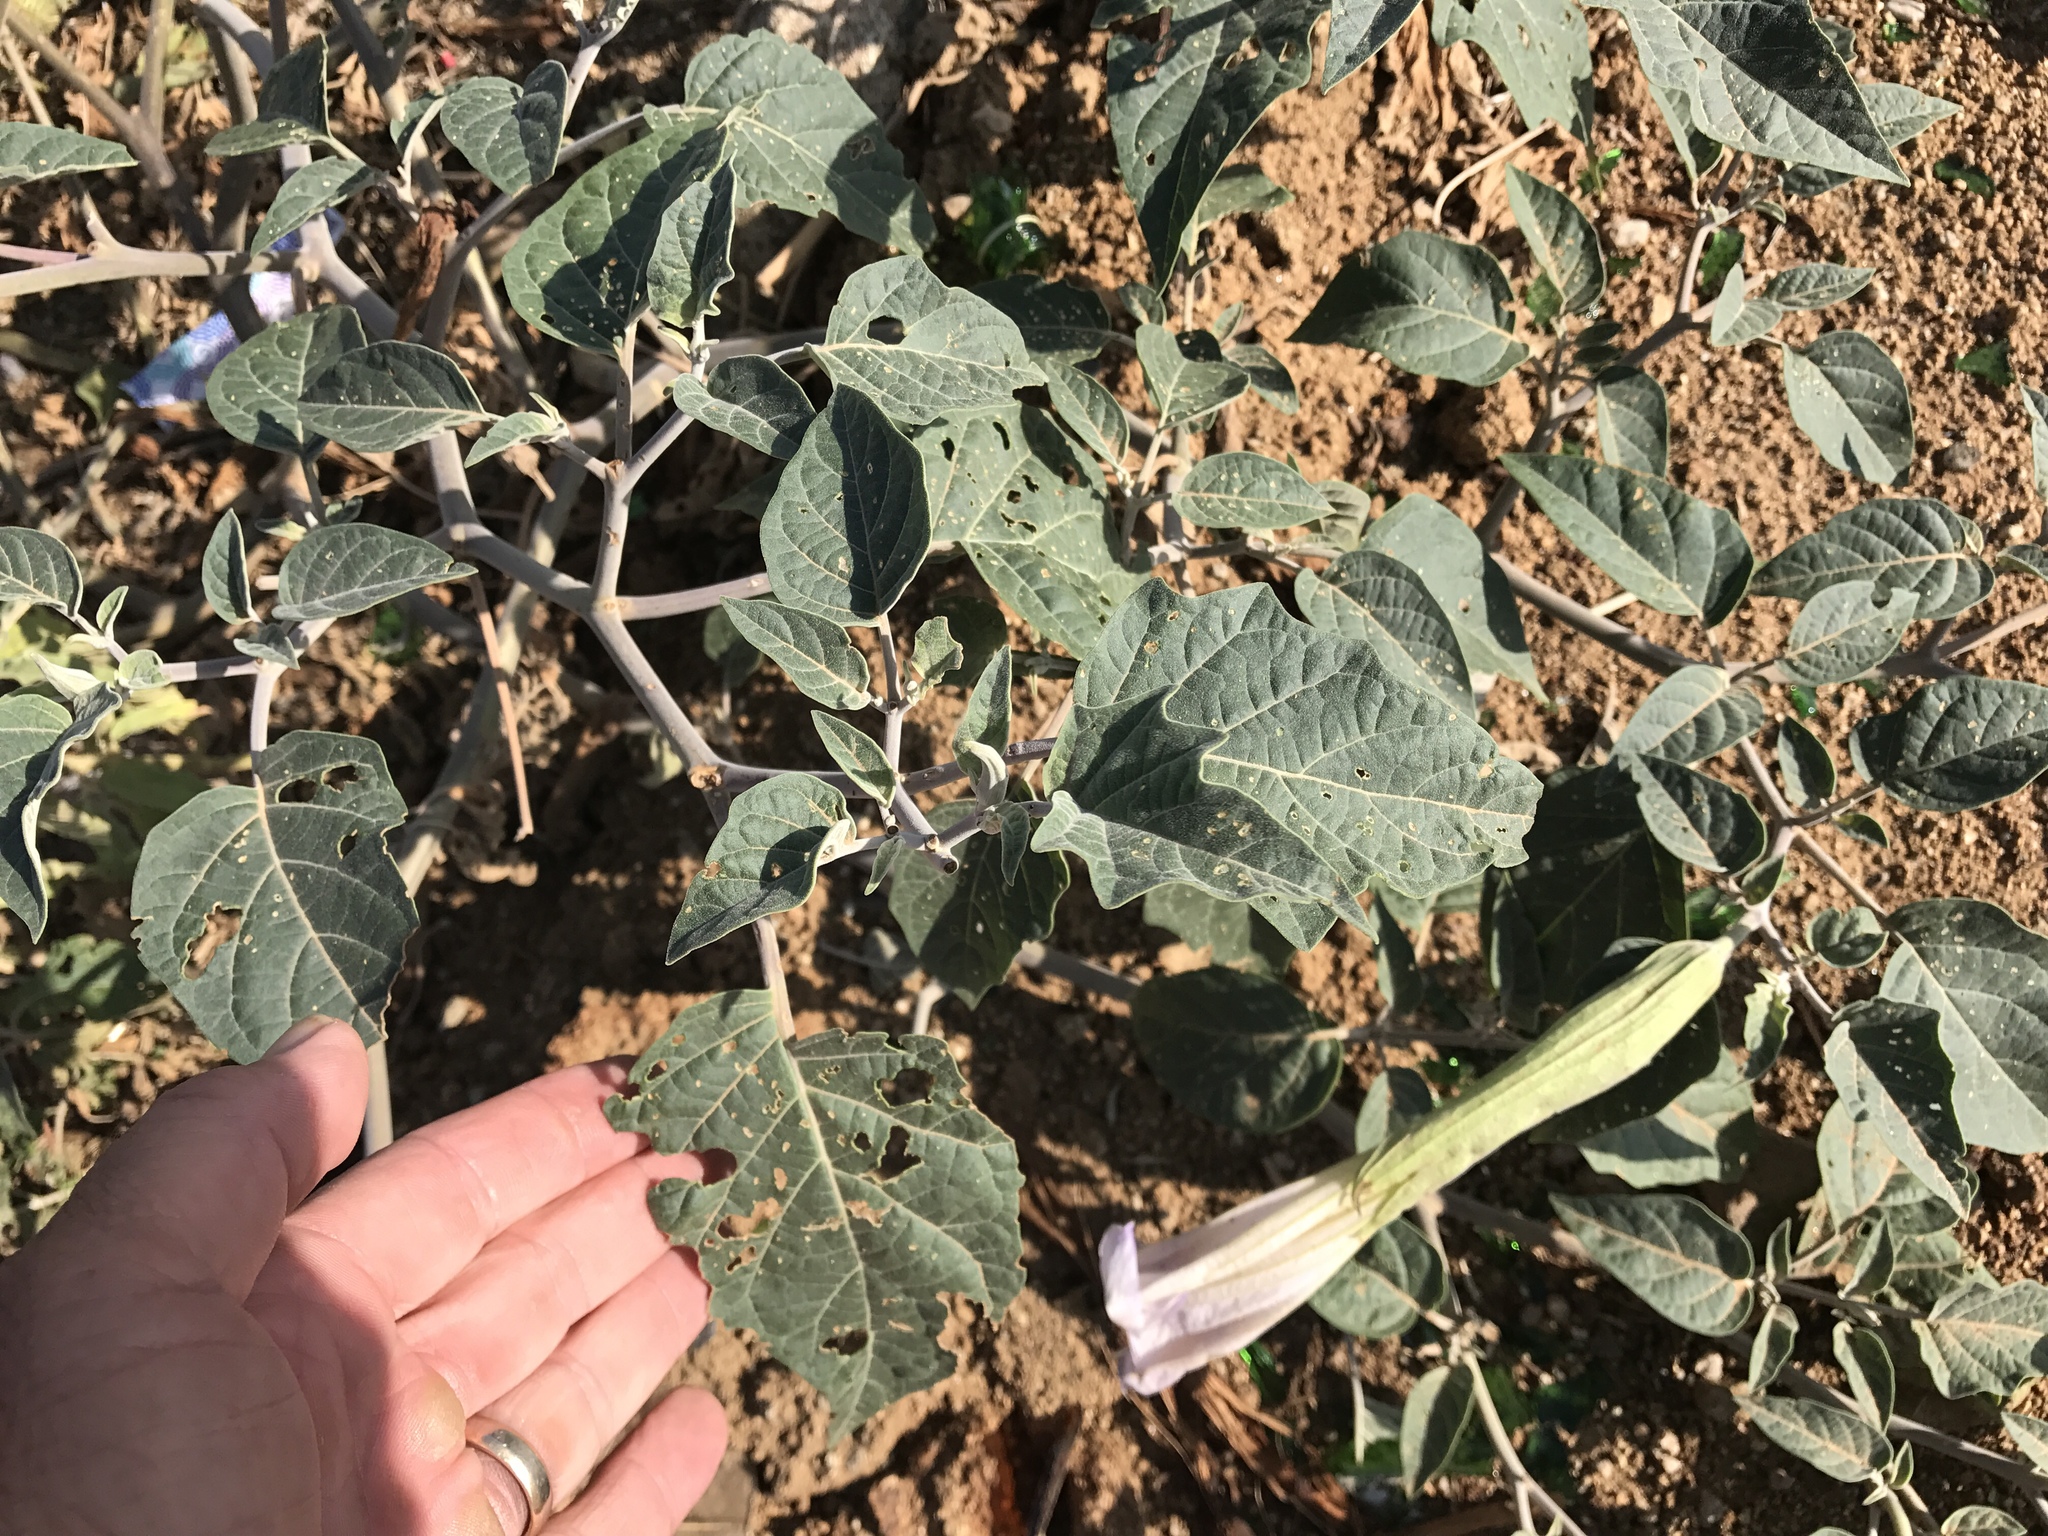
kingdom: Plantae
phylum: Tracheophyta
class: Magnoliopsida
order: Solanales
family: Solanaceae
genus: Datura
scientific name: Datura wrightii
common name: Sacred thorn-apple
